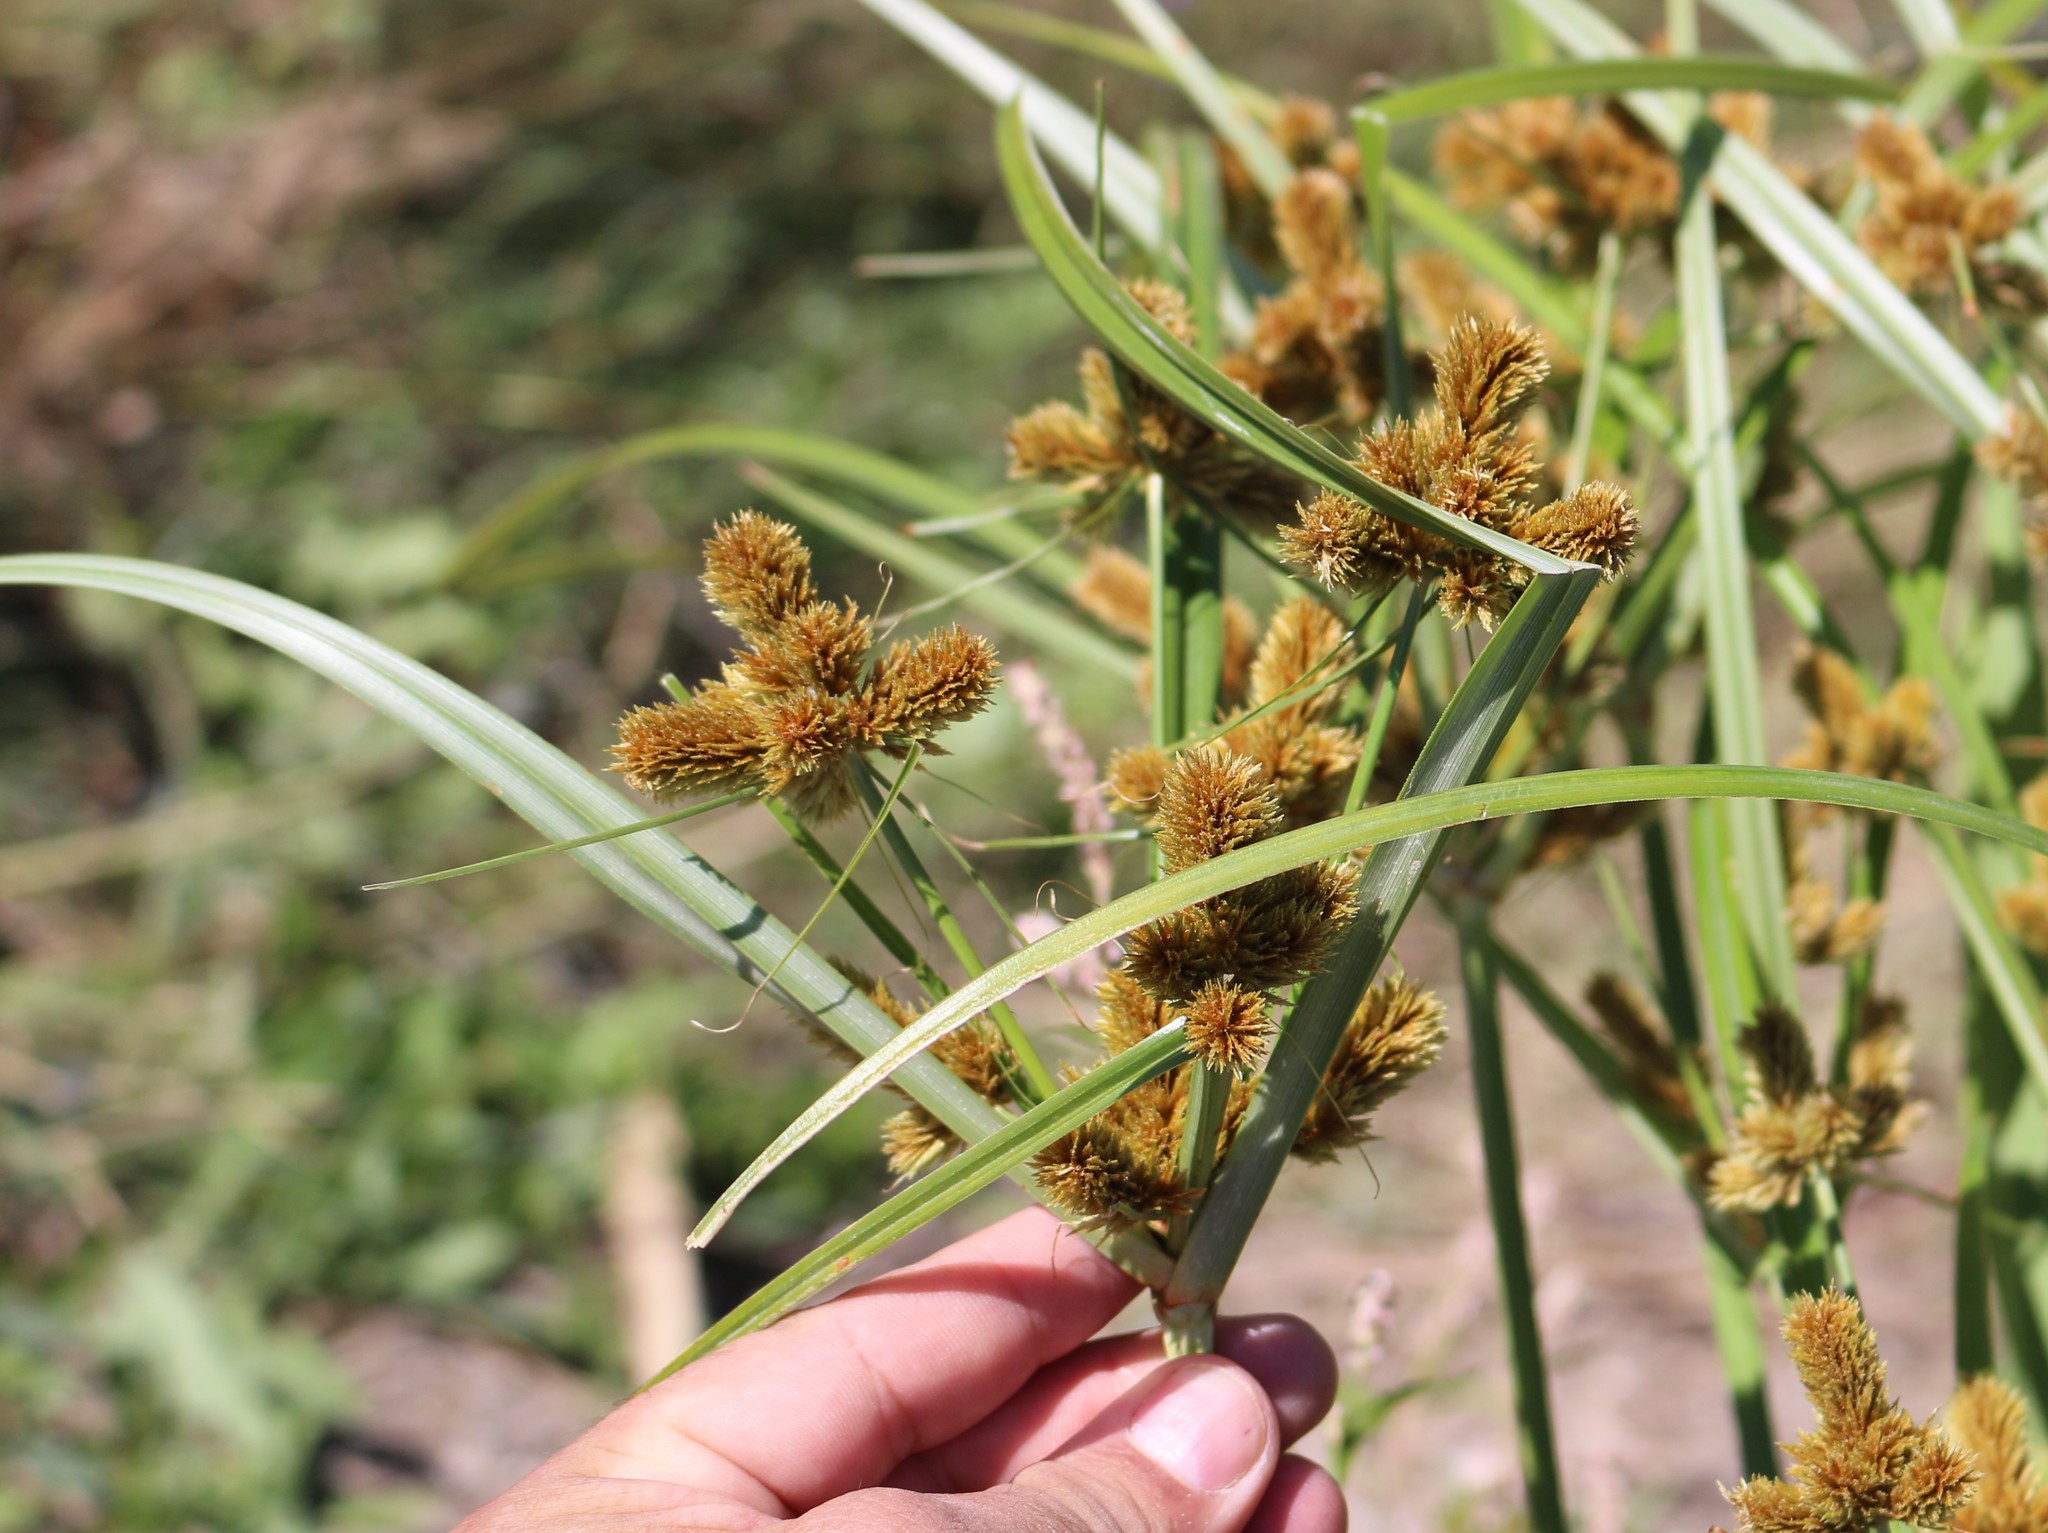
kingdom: Plantae
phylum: Tracheophyta
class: Liliopsida
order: Poales
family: Cyperaceae
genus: Cyperus
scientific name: Cyperus glomeratus
